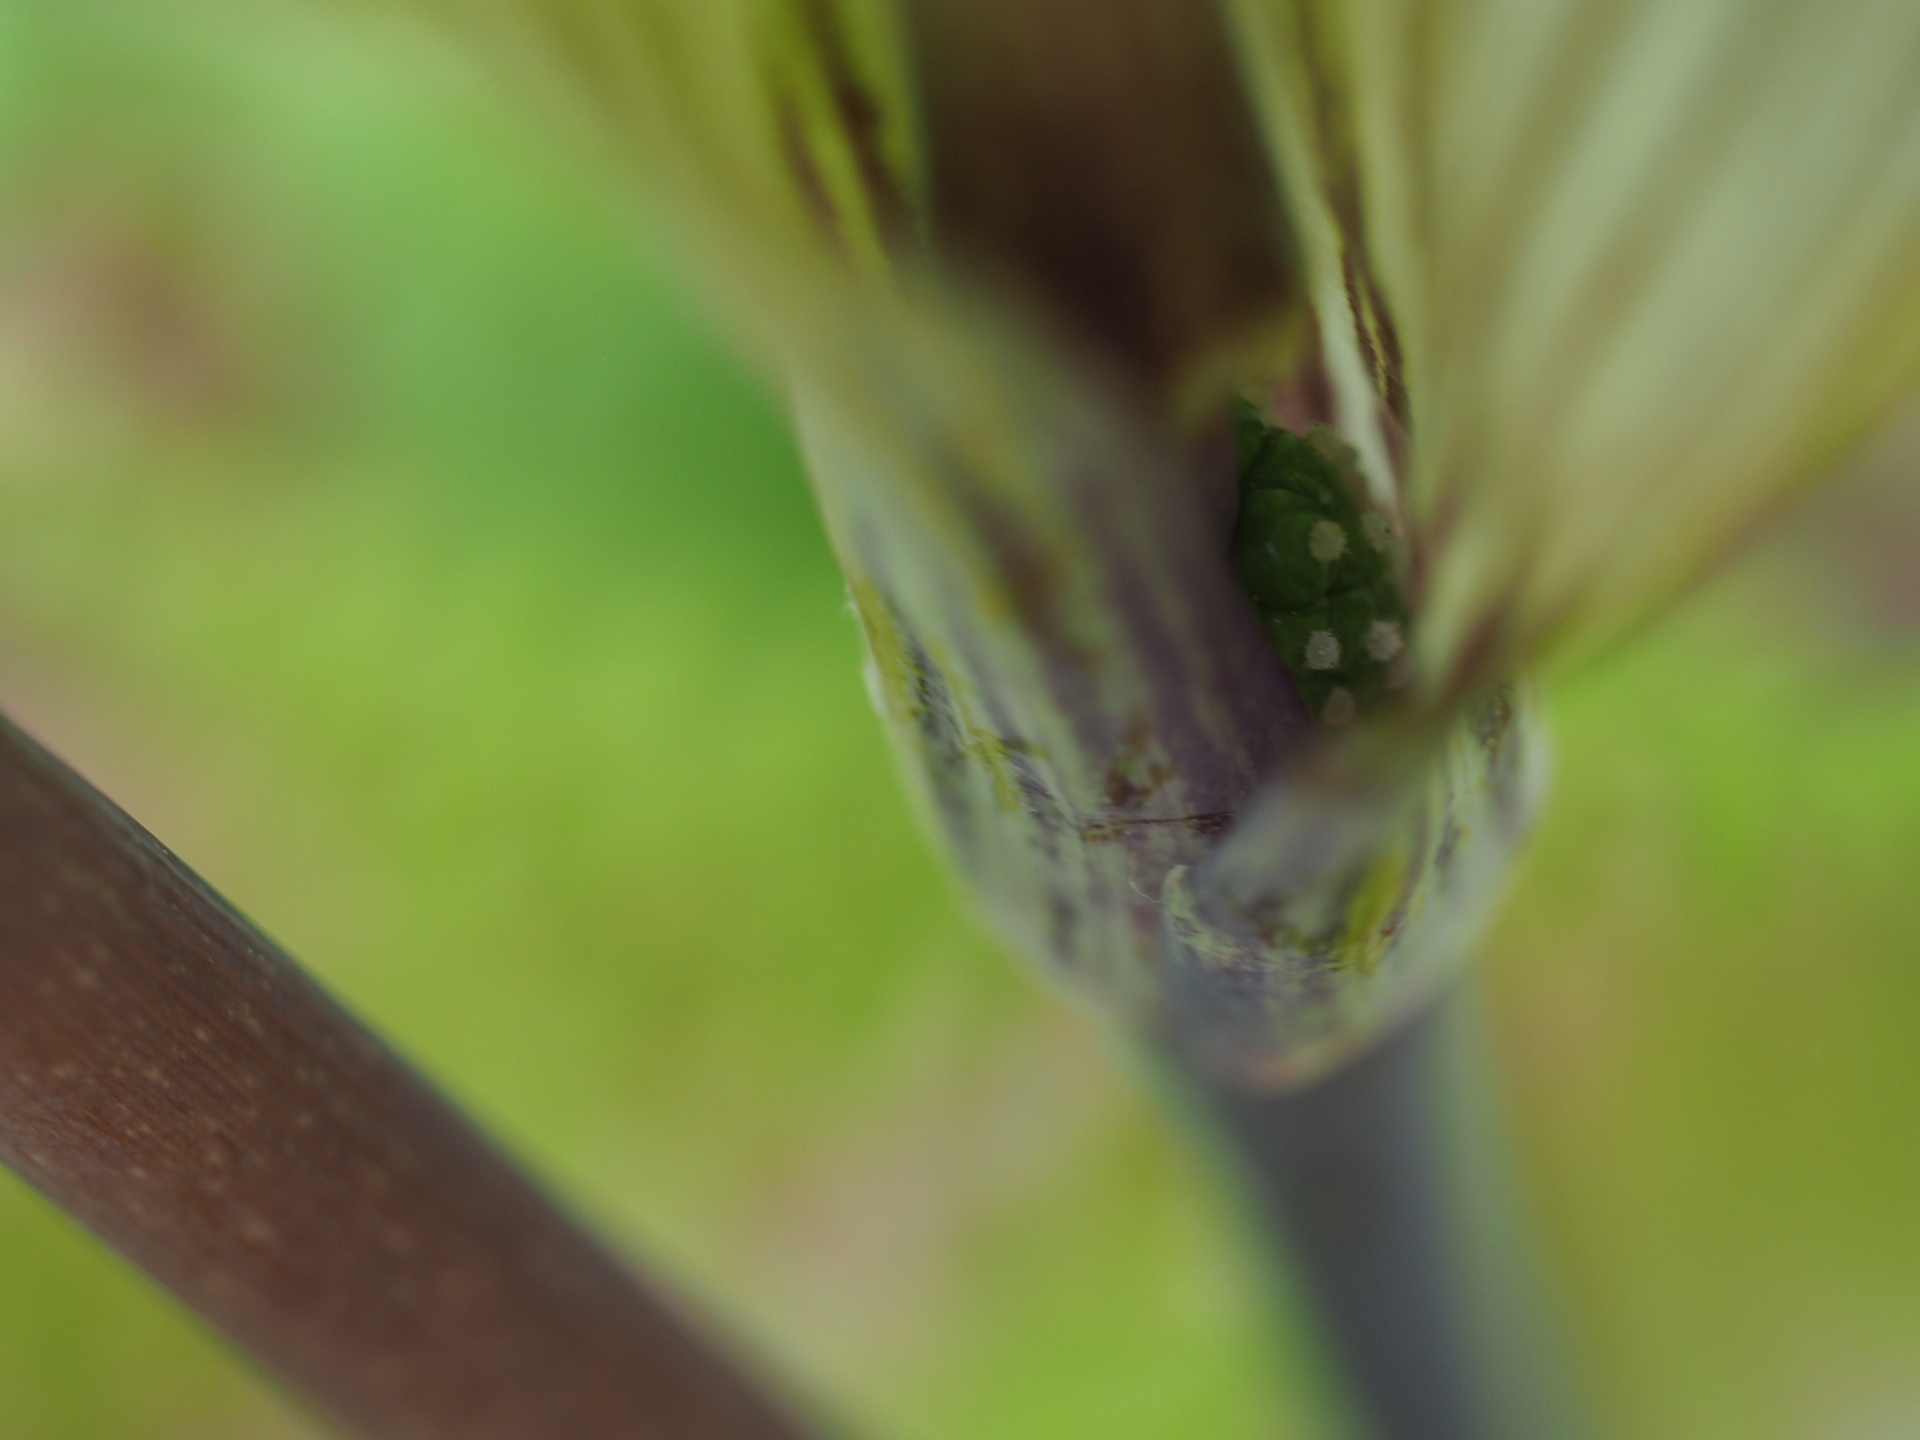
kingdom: Plantae
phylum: Tracheophyta
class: Liliopsida
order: Alismatales
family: Araceae
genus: Arisaema
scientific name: Arisaema triphyllum
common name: Jack-in-the-pulpit
